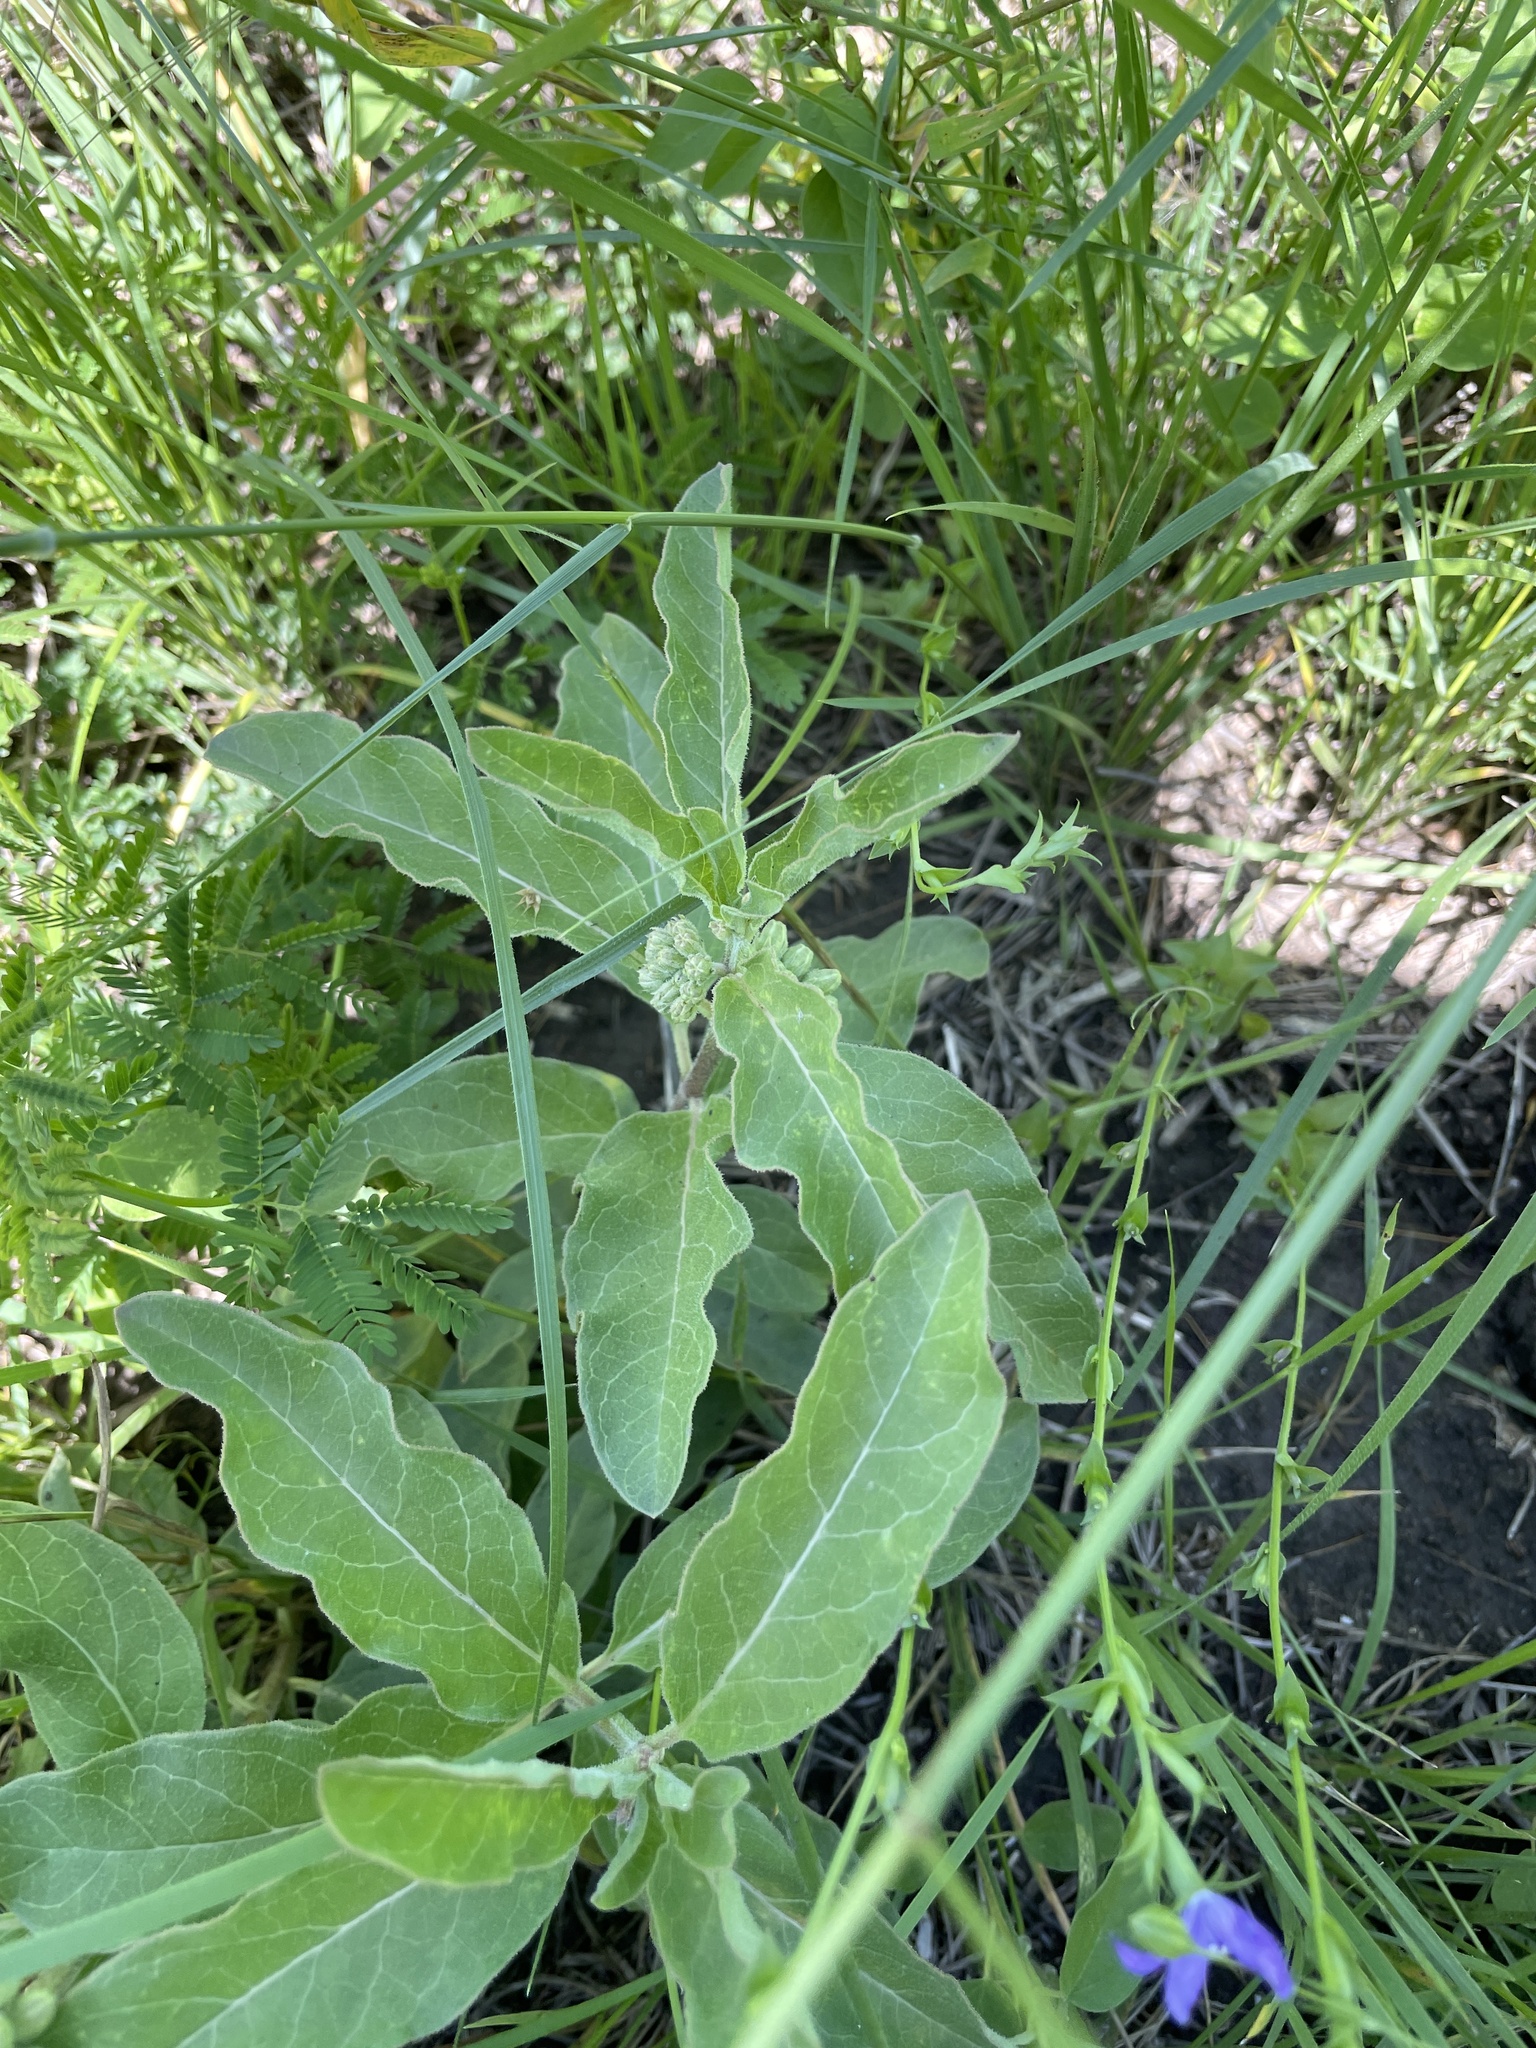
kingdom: Plantae
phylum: Tracheophyta
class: Magnoliopsida
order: Gentianales
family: Apocynaceae
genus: Asclepias
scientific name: Asclepias oenotheroides
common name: Zizotes milkweed
